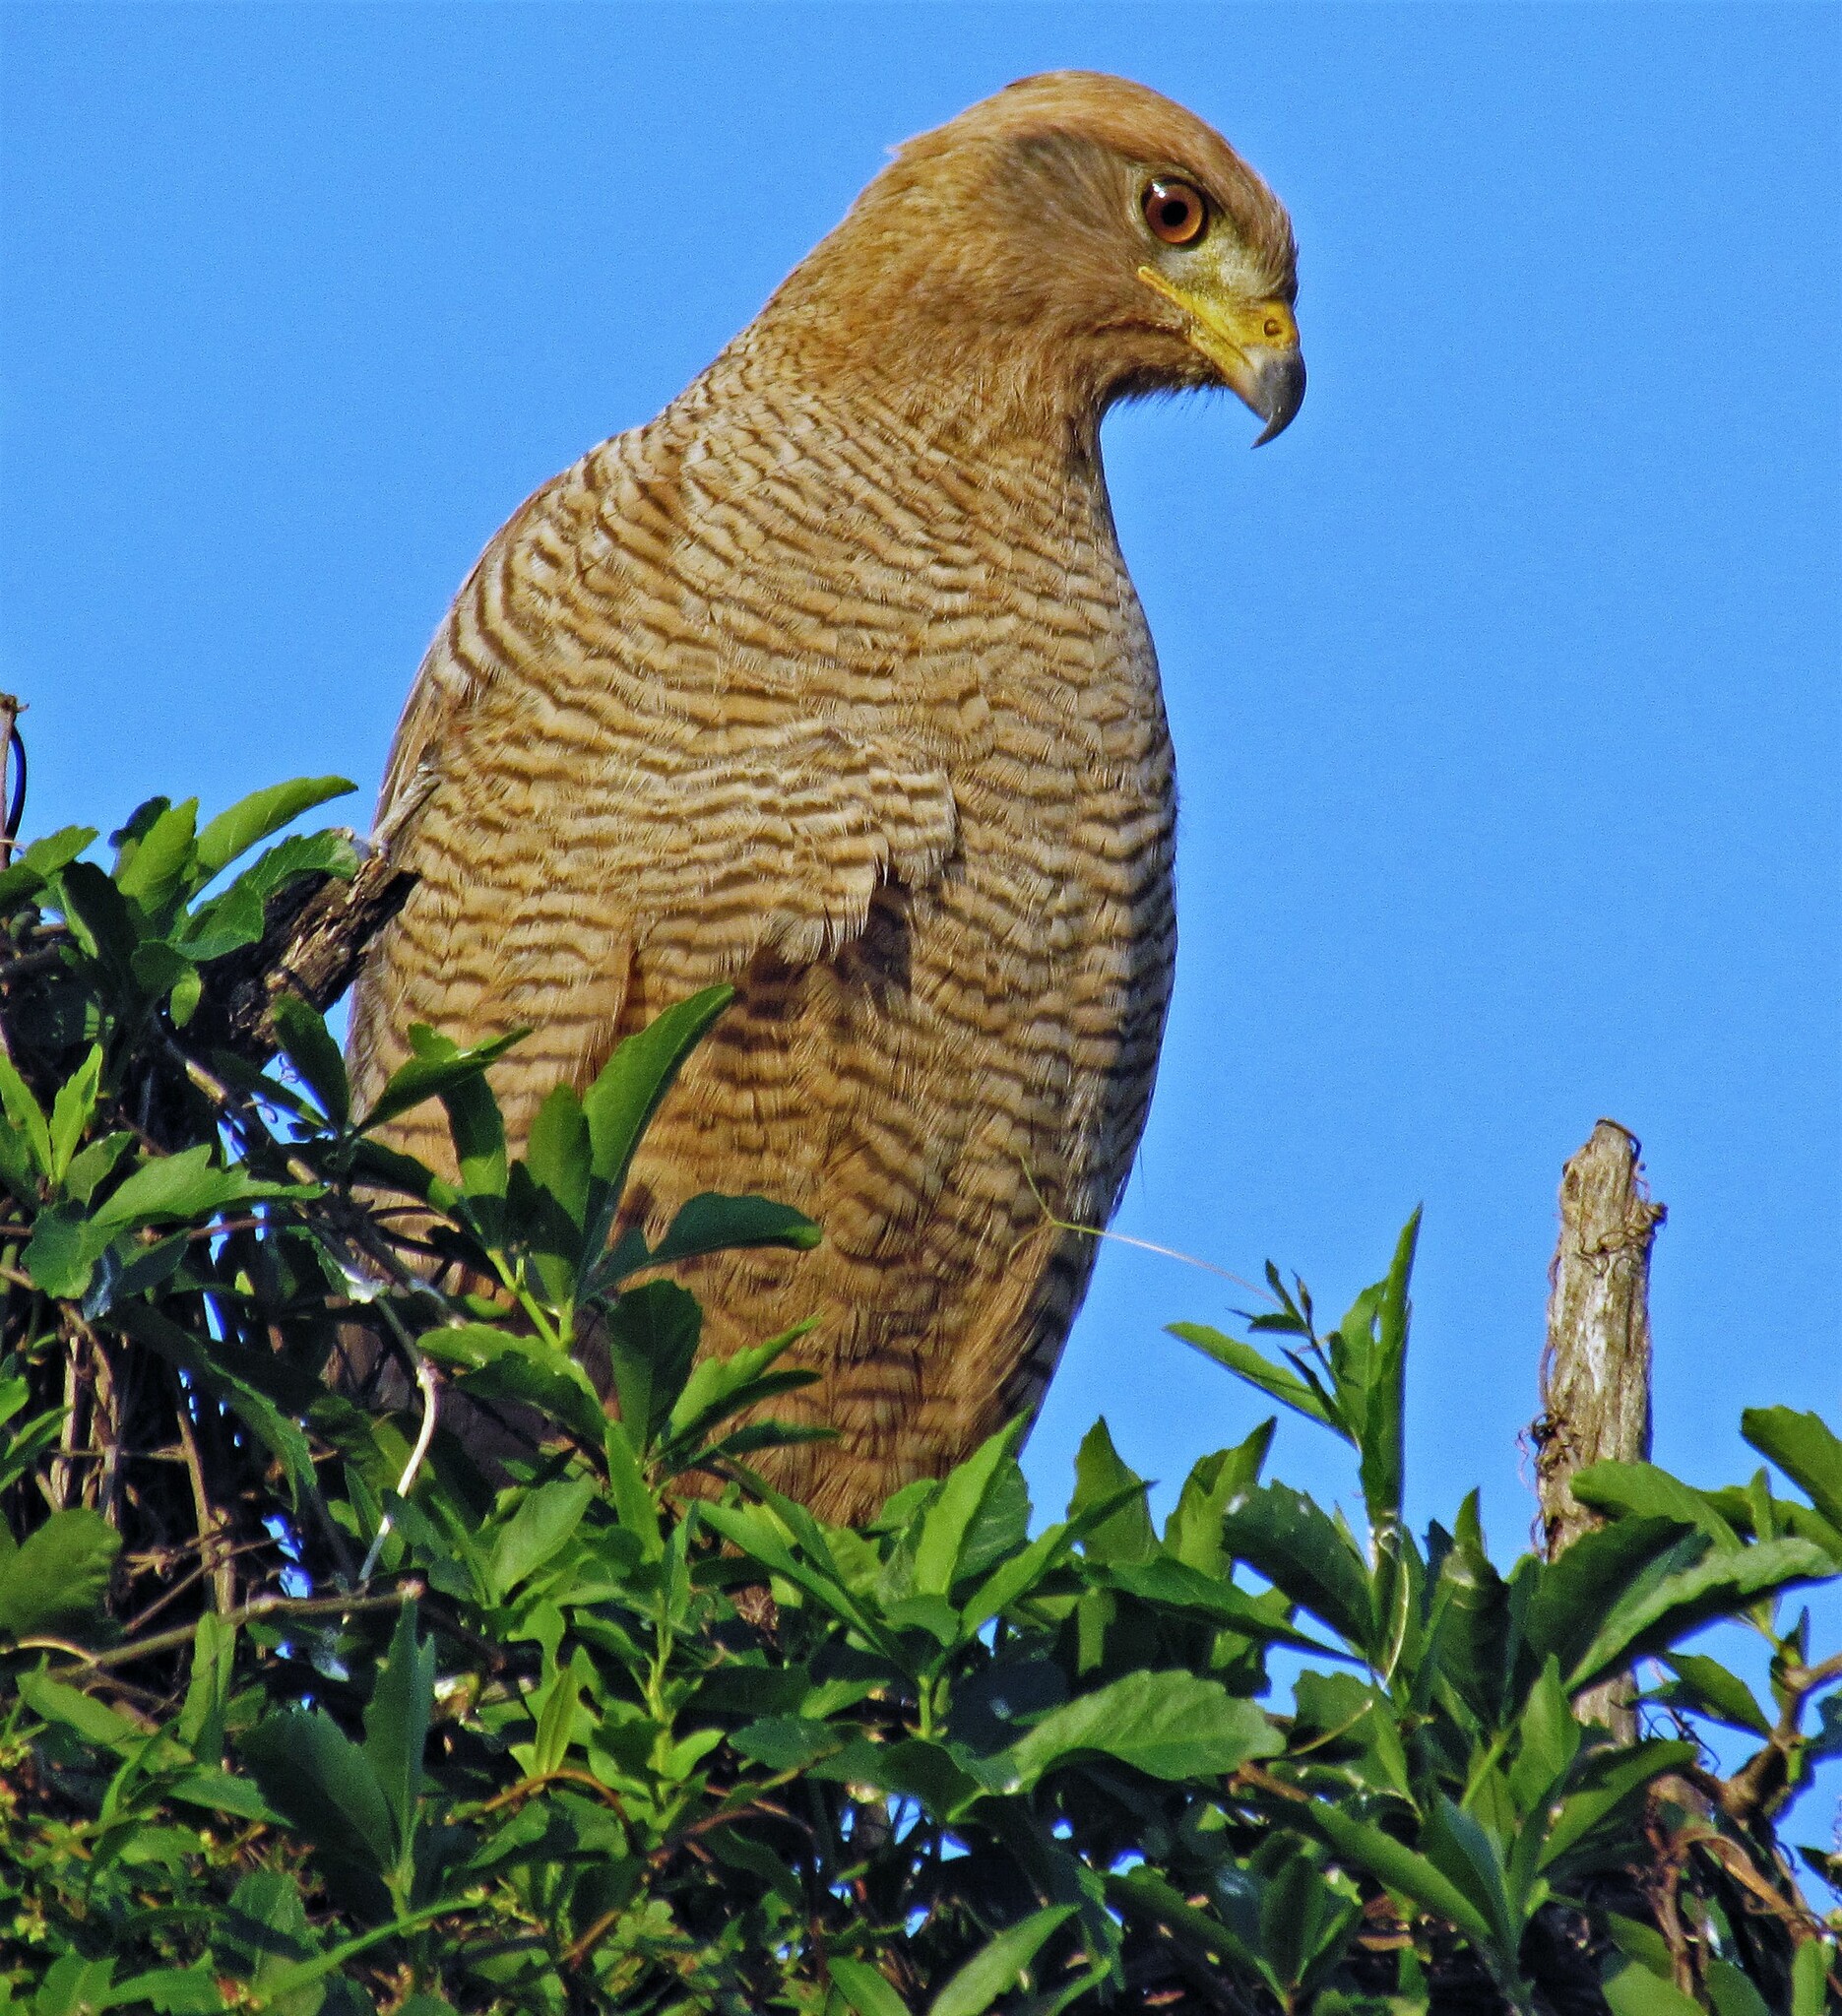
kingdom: Animalia
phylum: Chordata
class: Aves
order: Accipitriformes
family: Accipitridae
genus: Buteogallus
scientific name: Buteogallus meridionalis
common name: Savanna hawk
